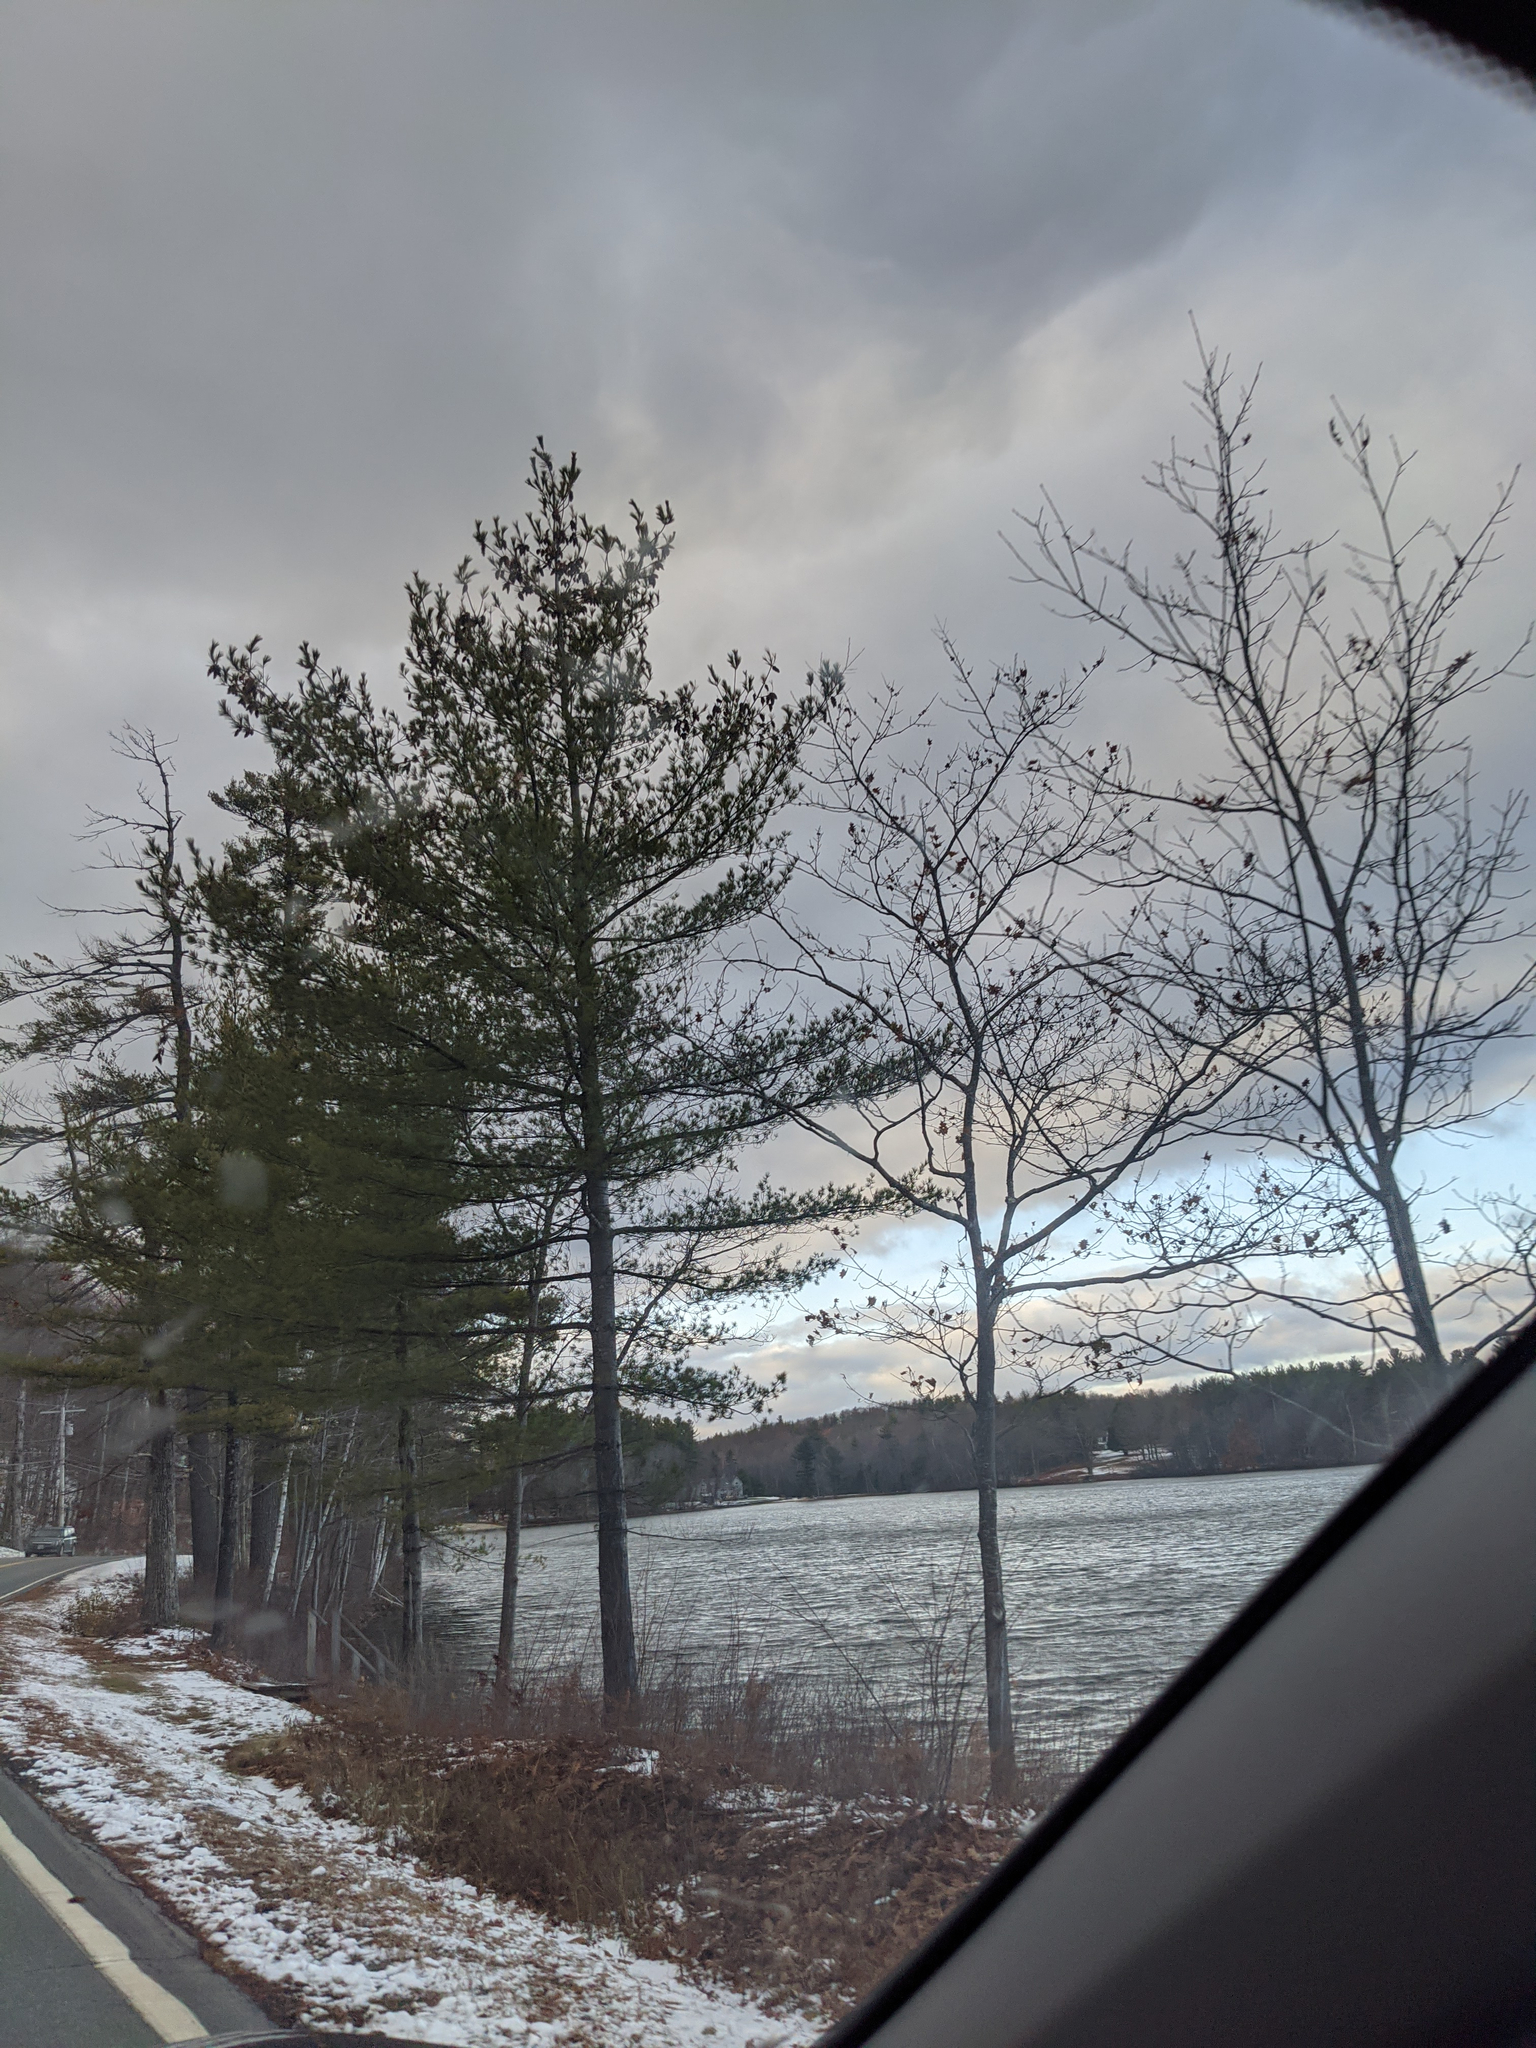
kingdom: Plantae
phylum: Tracheophyta
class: Pinopsida
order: Pinales
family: Pinaceae
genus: Pinus
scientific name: Pinus strobus
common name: Weymouth pine
